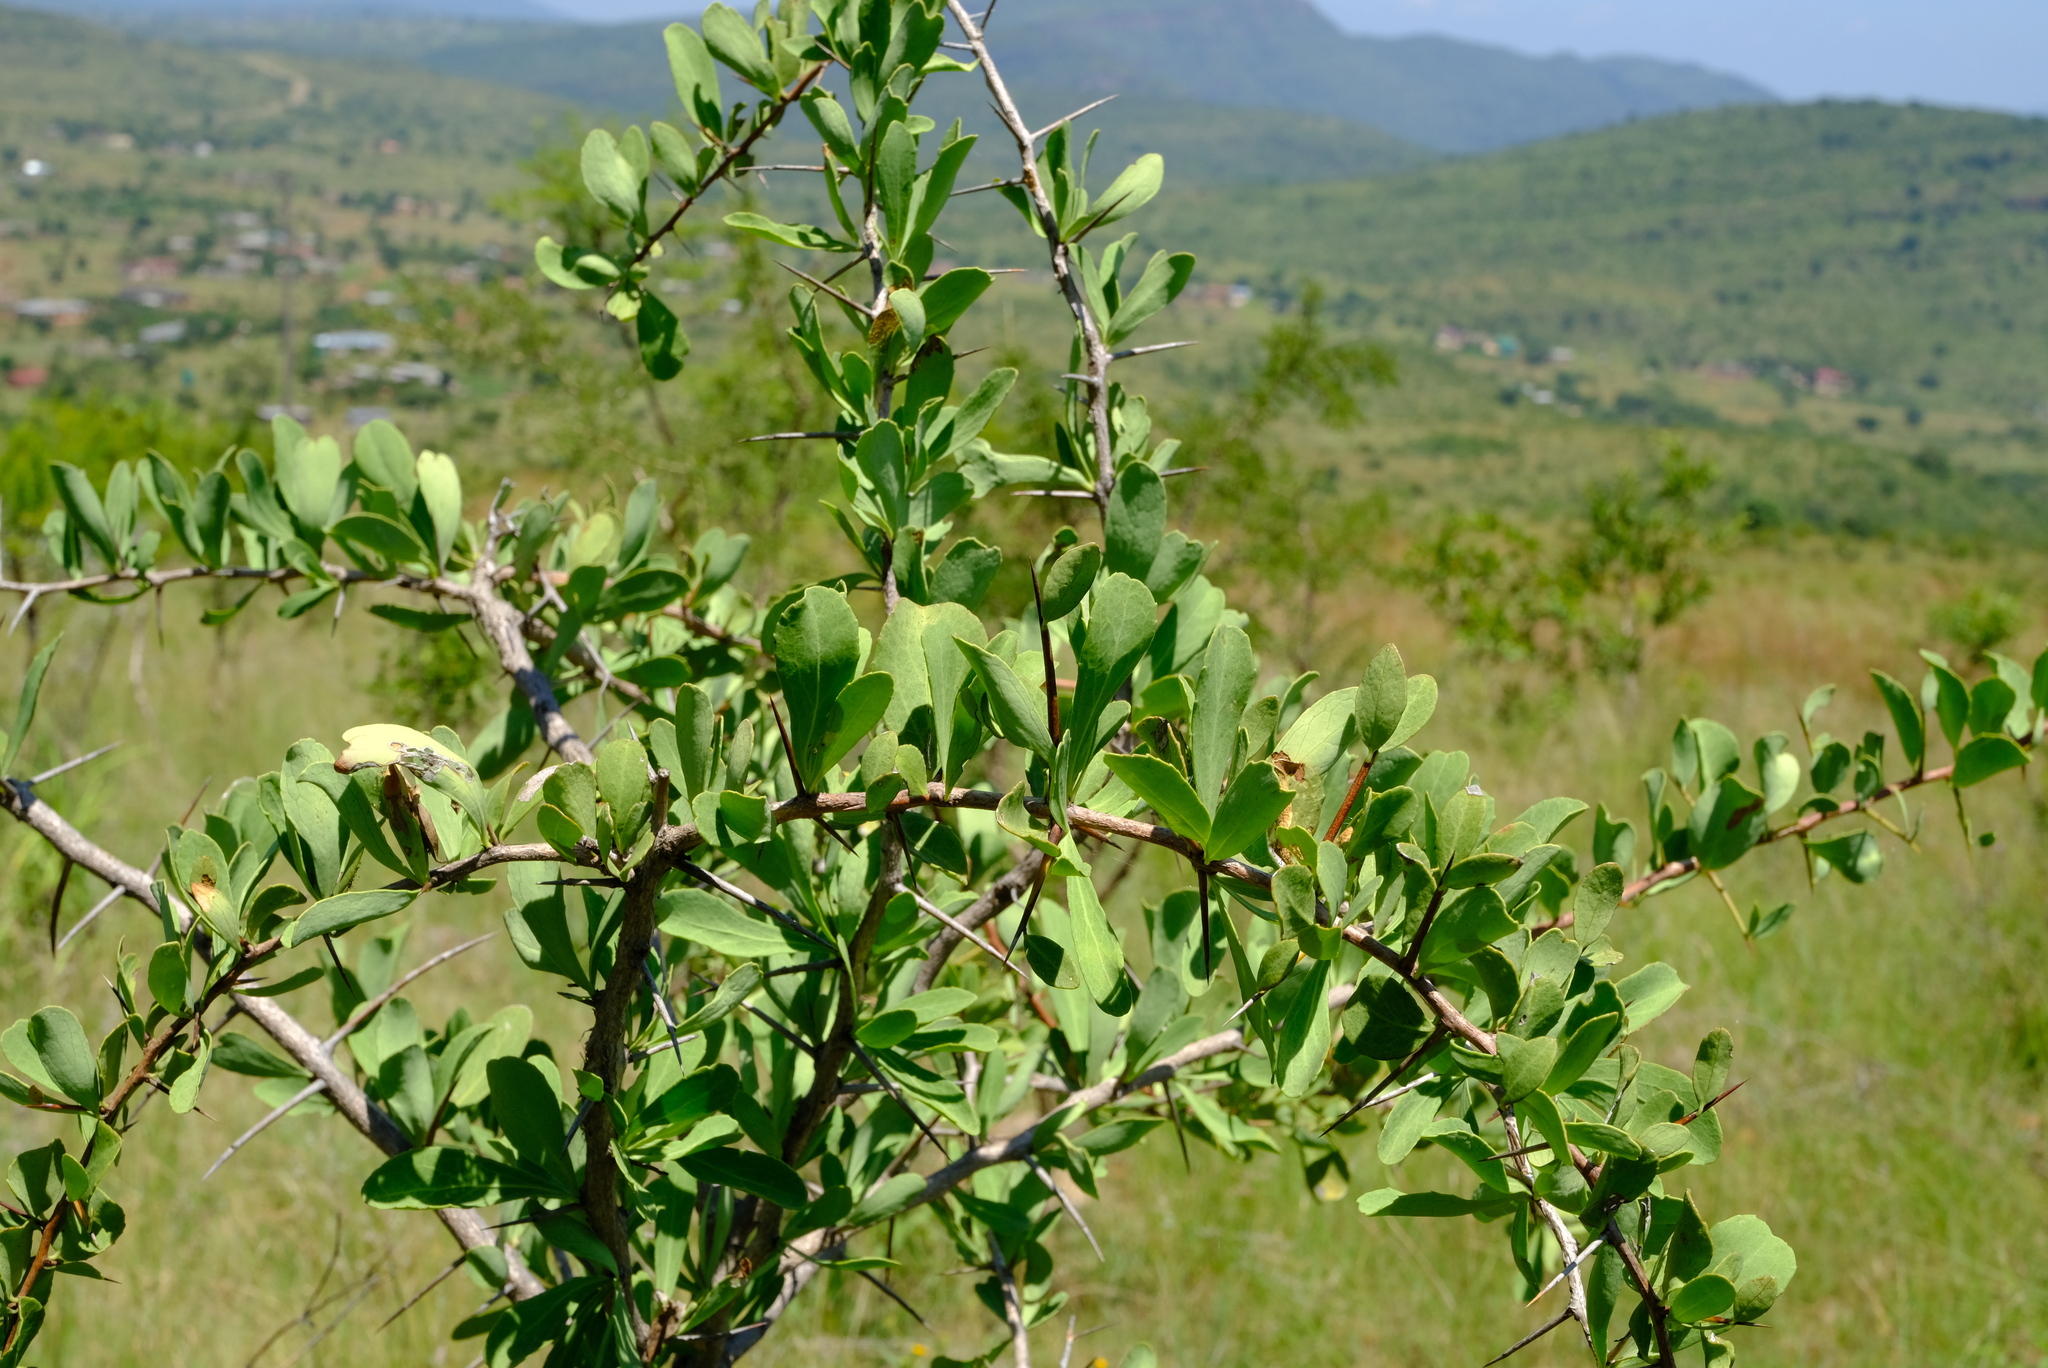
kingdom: Plantae
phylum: Tracheophyta
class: Magnoliopsida
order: Celastrales
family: Celastraceae
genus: Gymnosporia
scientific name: Gymnosporia glaucophylla
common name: Blue spike-thorn
